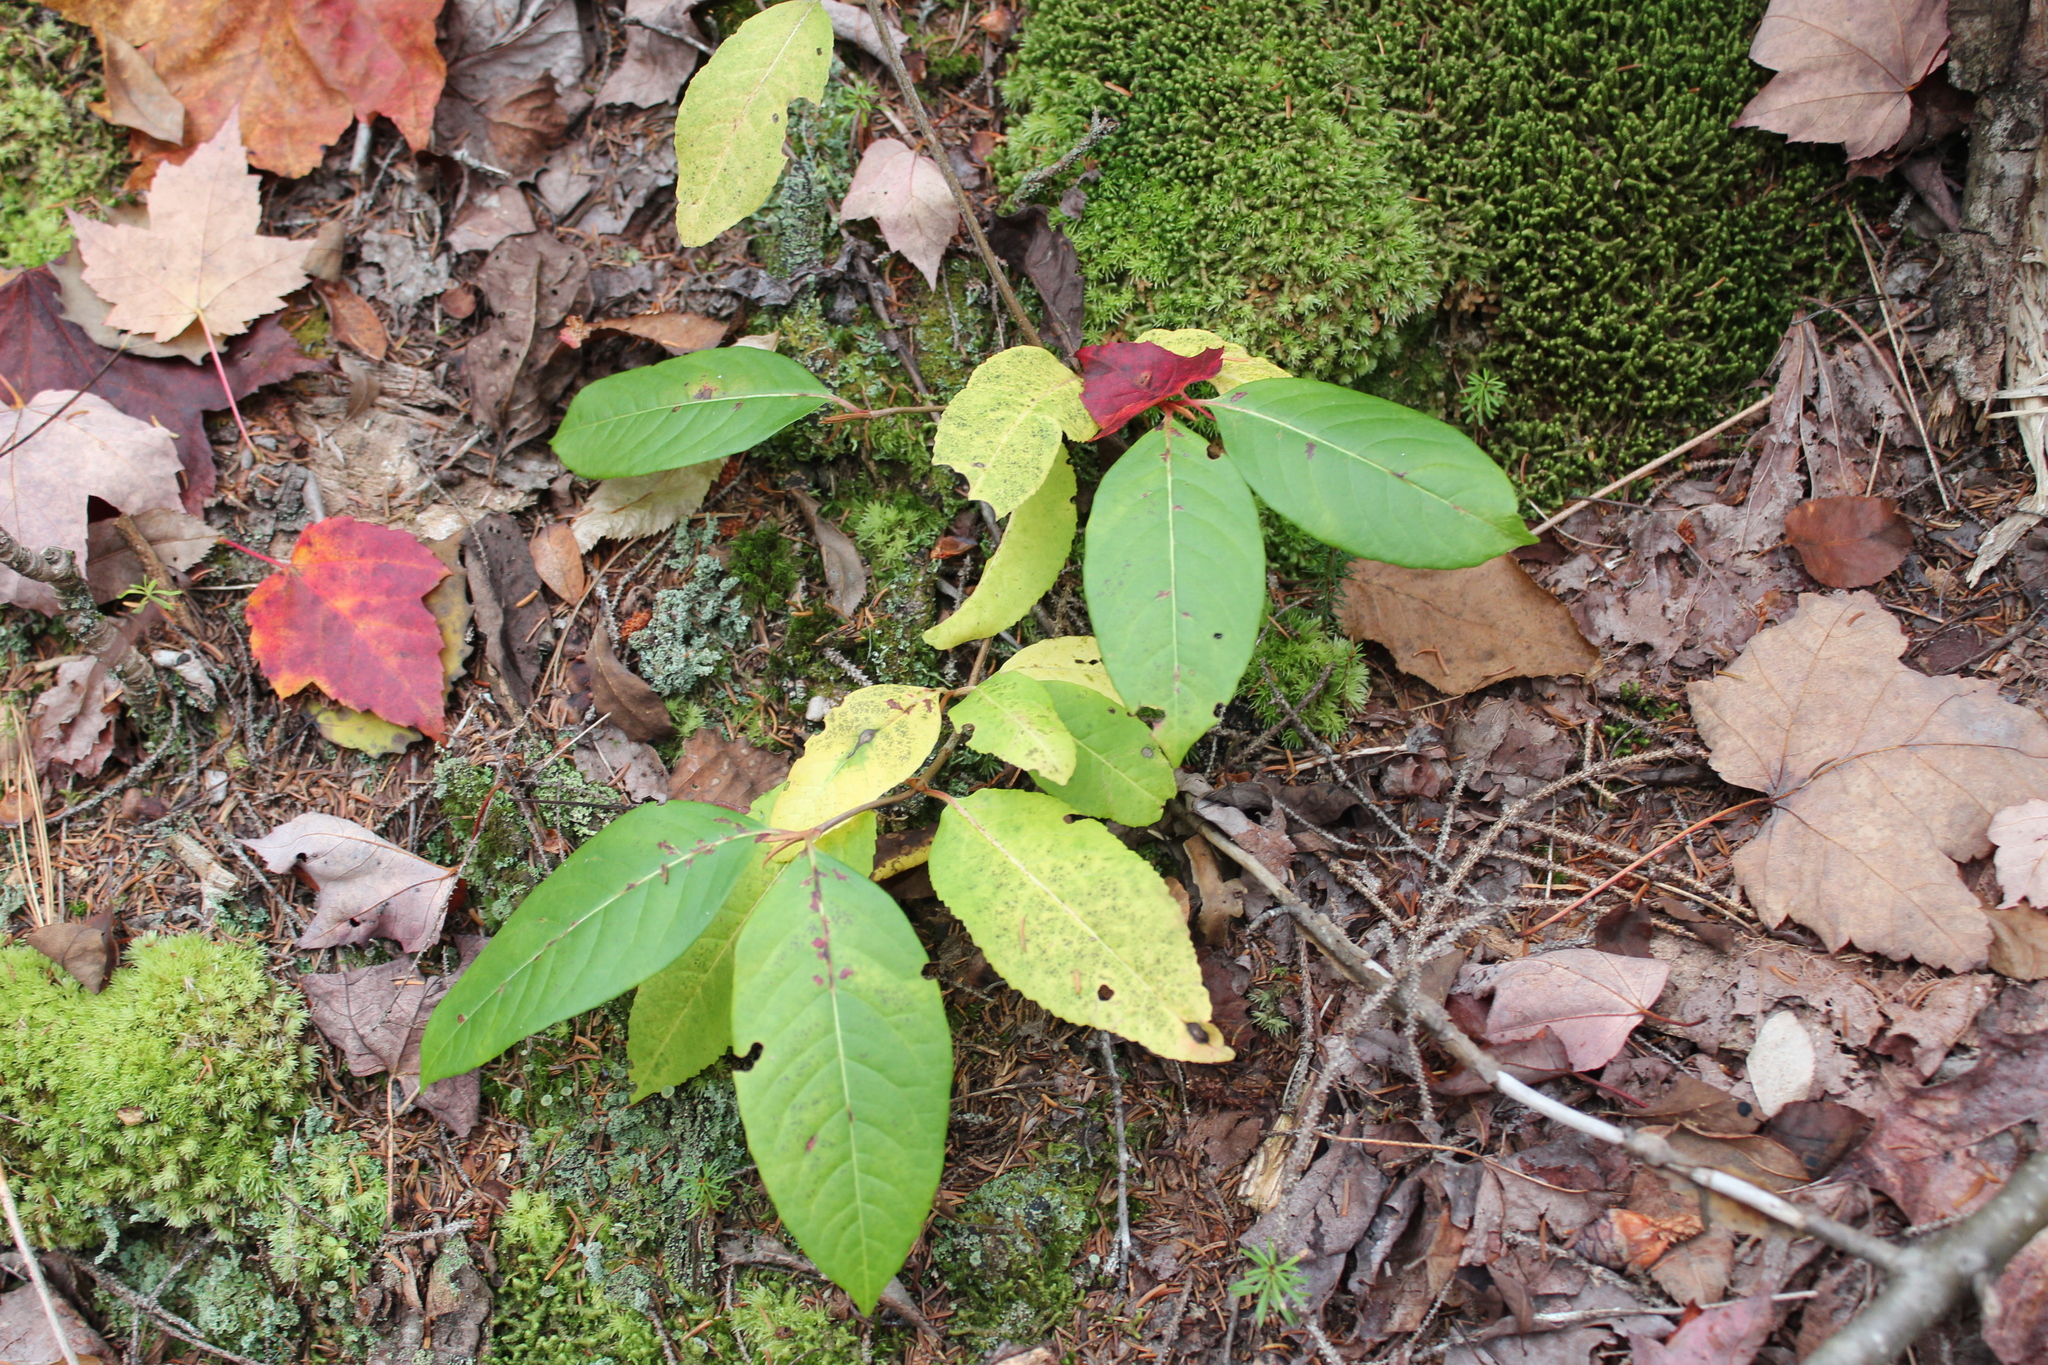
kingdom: Plantae
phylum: Tracheophyta
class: Magnoliopsida
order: Dipsacales
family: Viburnaceae
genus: Viburnum
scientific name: Viburnum cassinoides
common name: Swamp haw
